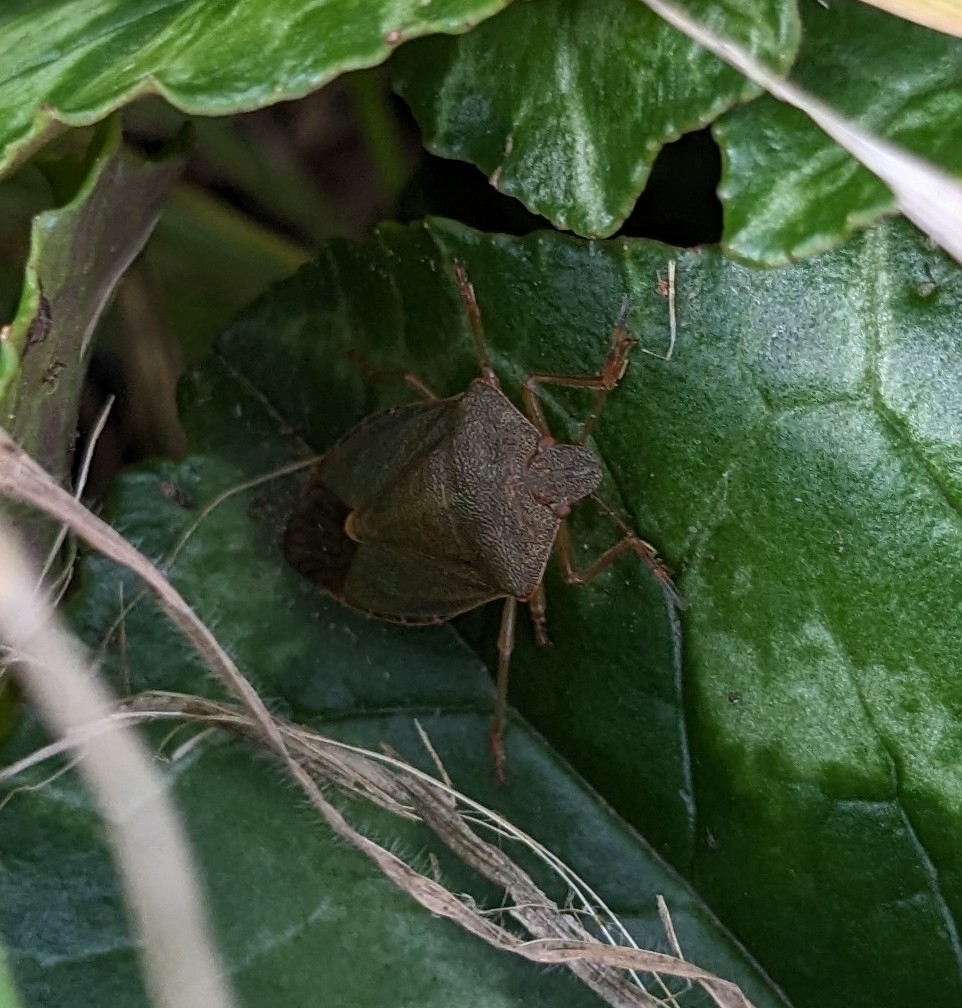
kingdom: Animalia
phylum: Arthropoda
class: Insecta
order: Hemiptera
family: Pentatomidae
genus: Palomena
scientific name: Palomena prasina
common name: Green shieldbug
